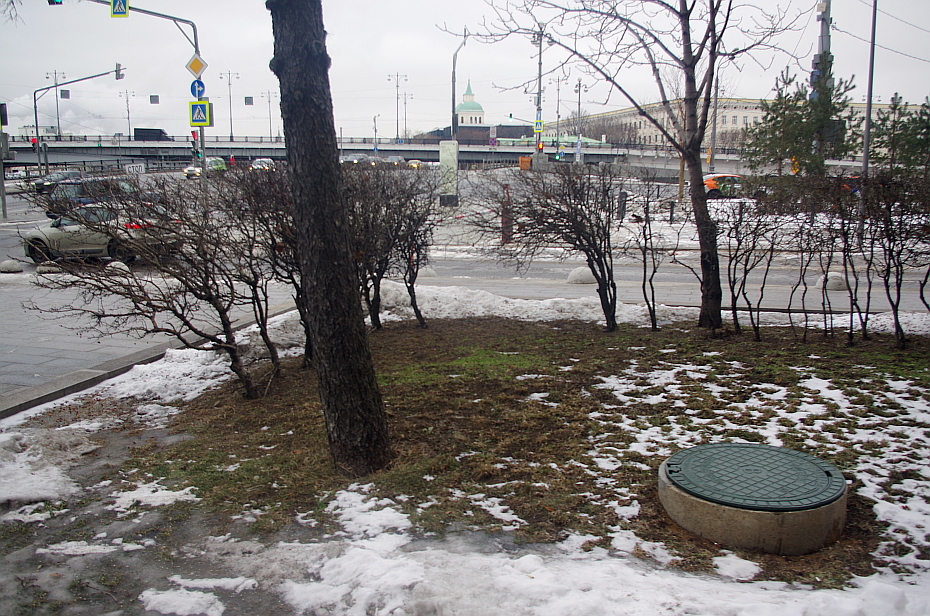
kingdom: Plantae
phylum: Tracheophyta
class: Magnoliopsida
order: Caryophyllales
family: Caryophyllaceae
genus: Stellaria
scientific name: Stellaria media
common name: Common chickweed
